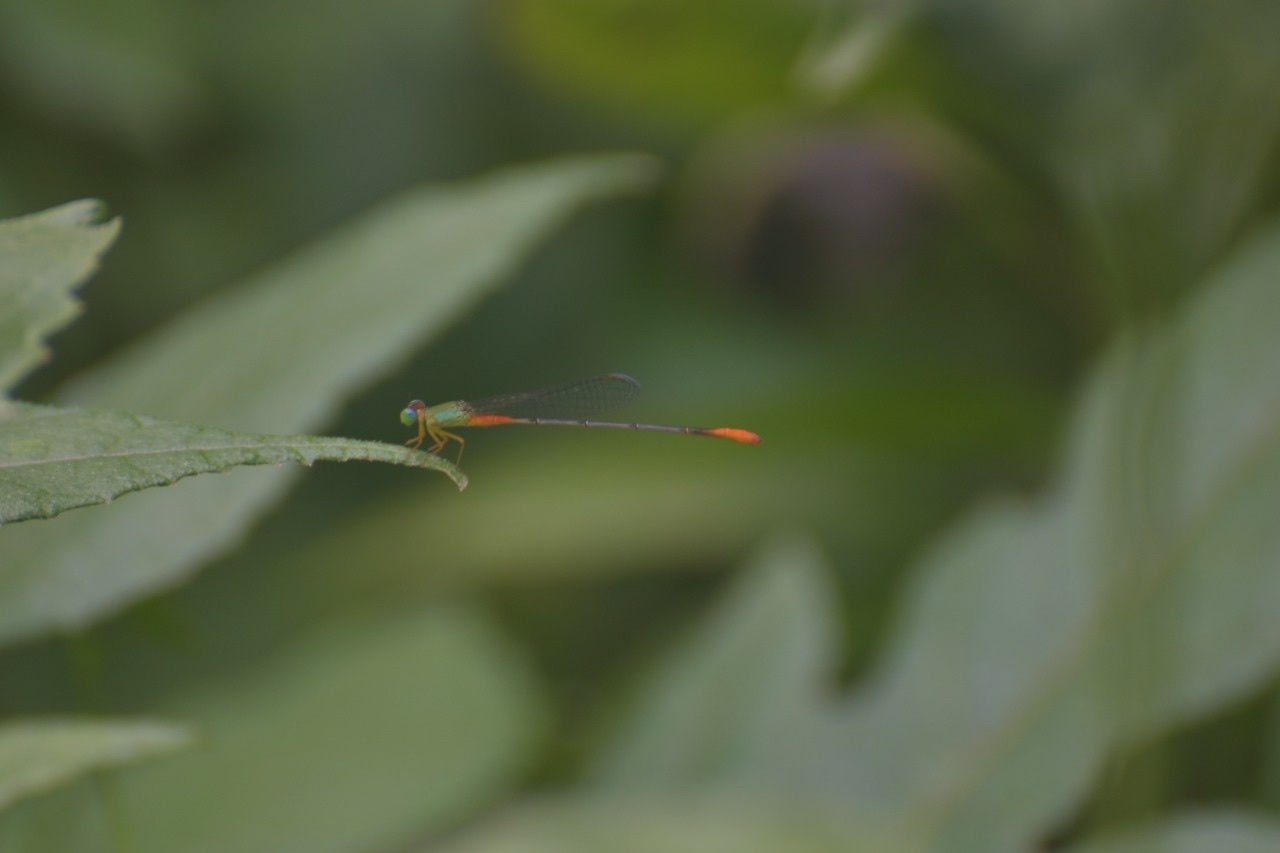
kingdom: Animalia
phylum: Arthropoda
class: Insecta
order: Odonata
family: Coenagrionidae
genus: Ceriagrion
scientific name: Ceriagrion cerinorubellum
